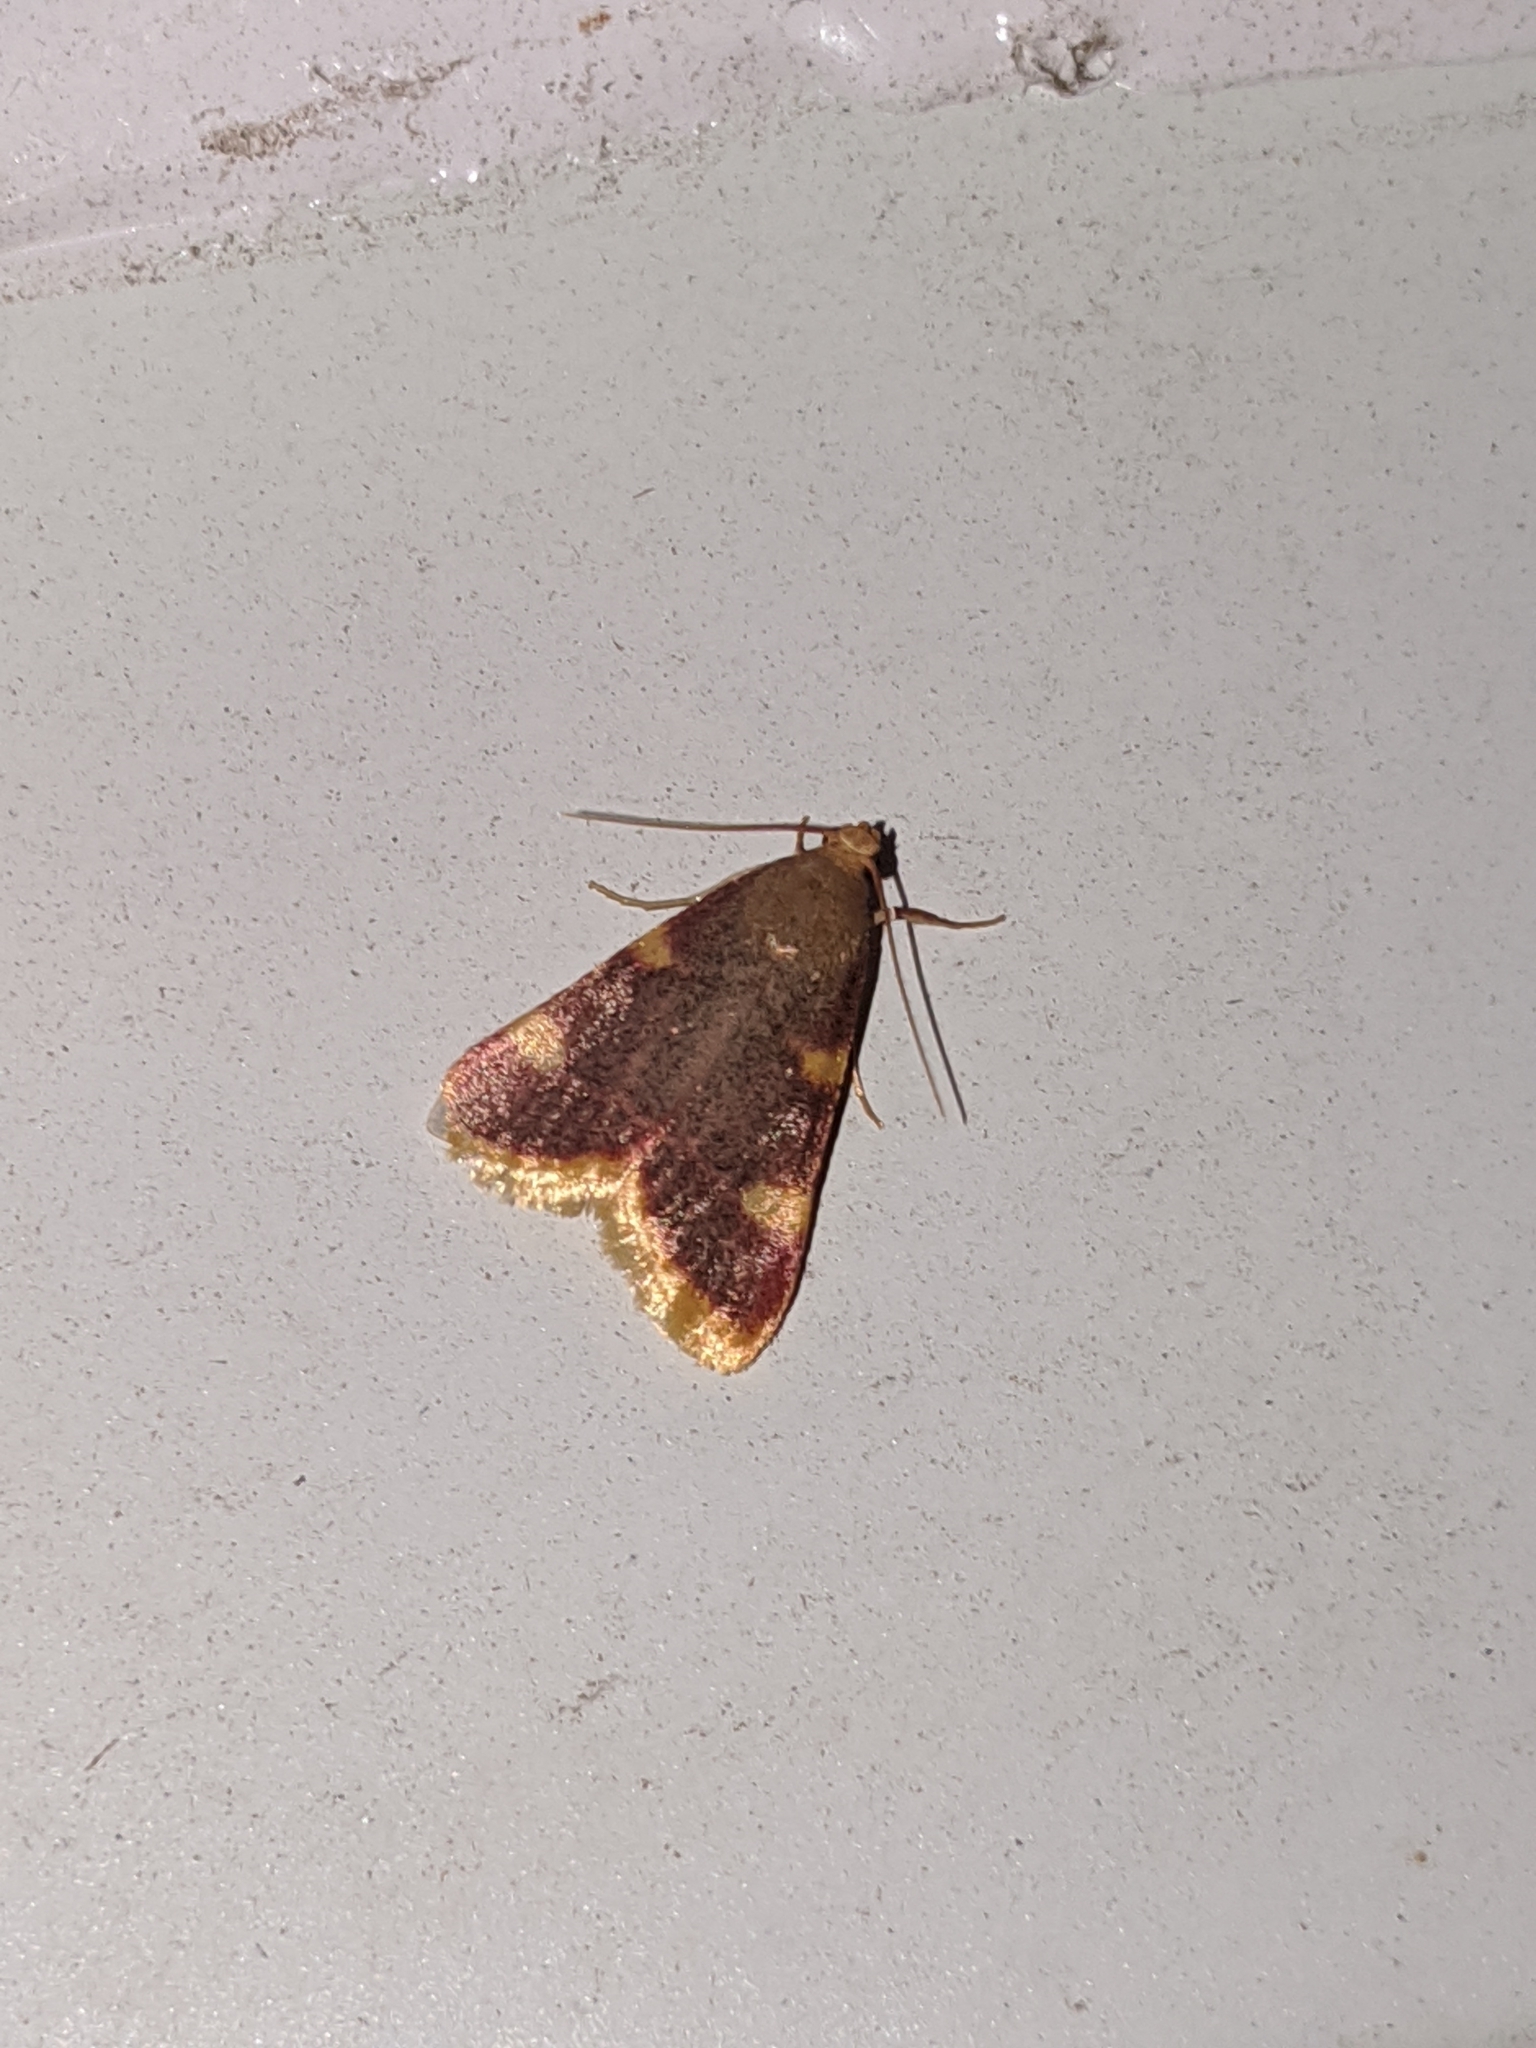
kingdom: Animalia
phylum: Arthropoda
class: Insecta
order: Lepidoptera
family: Pyralidae
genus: Hypsopygia
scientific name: Hypsopygia costalis
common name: Gold triangle
